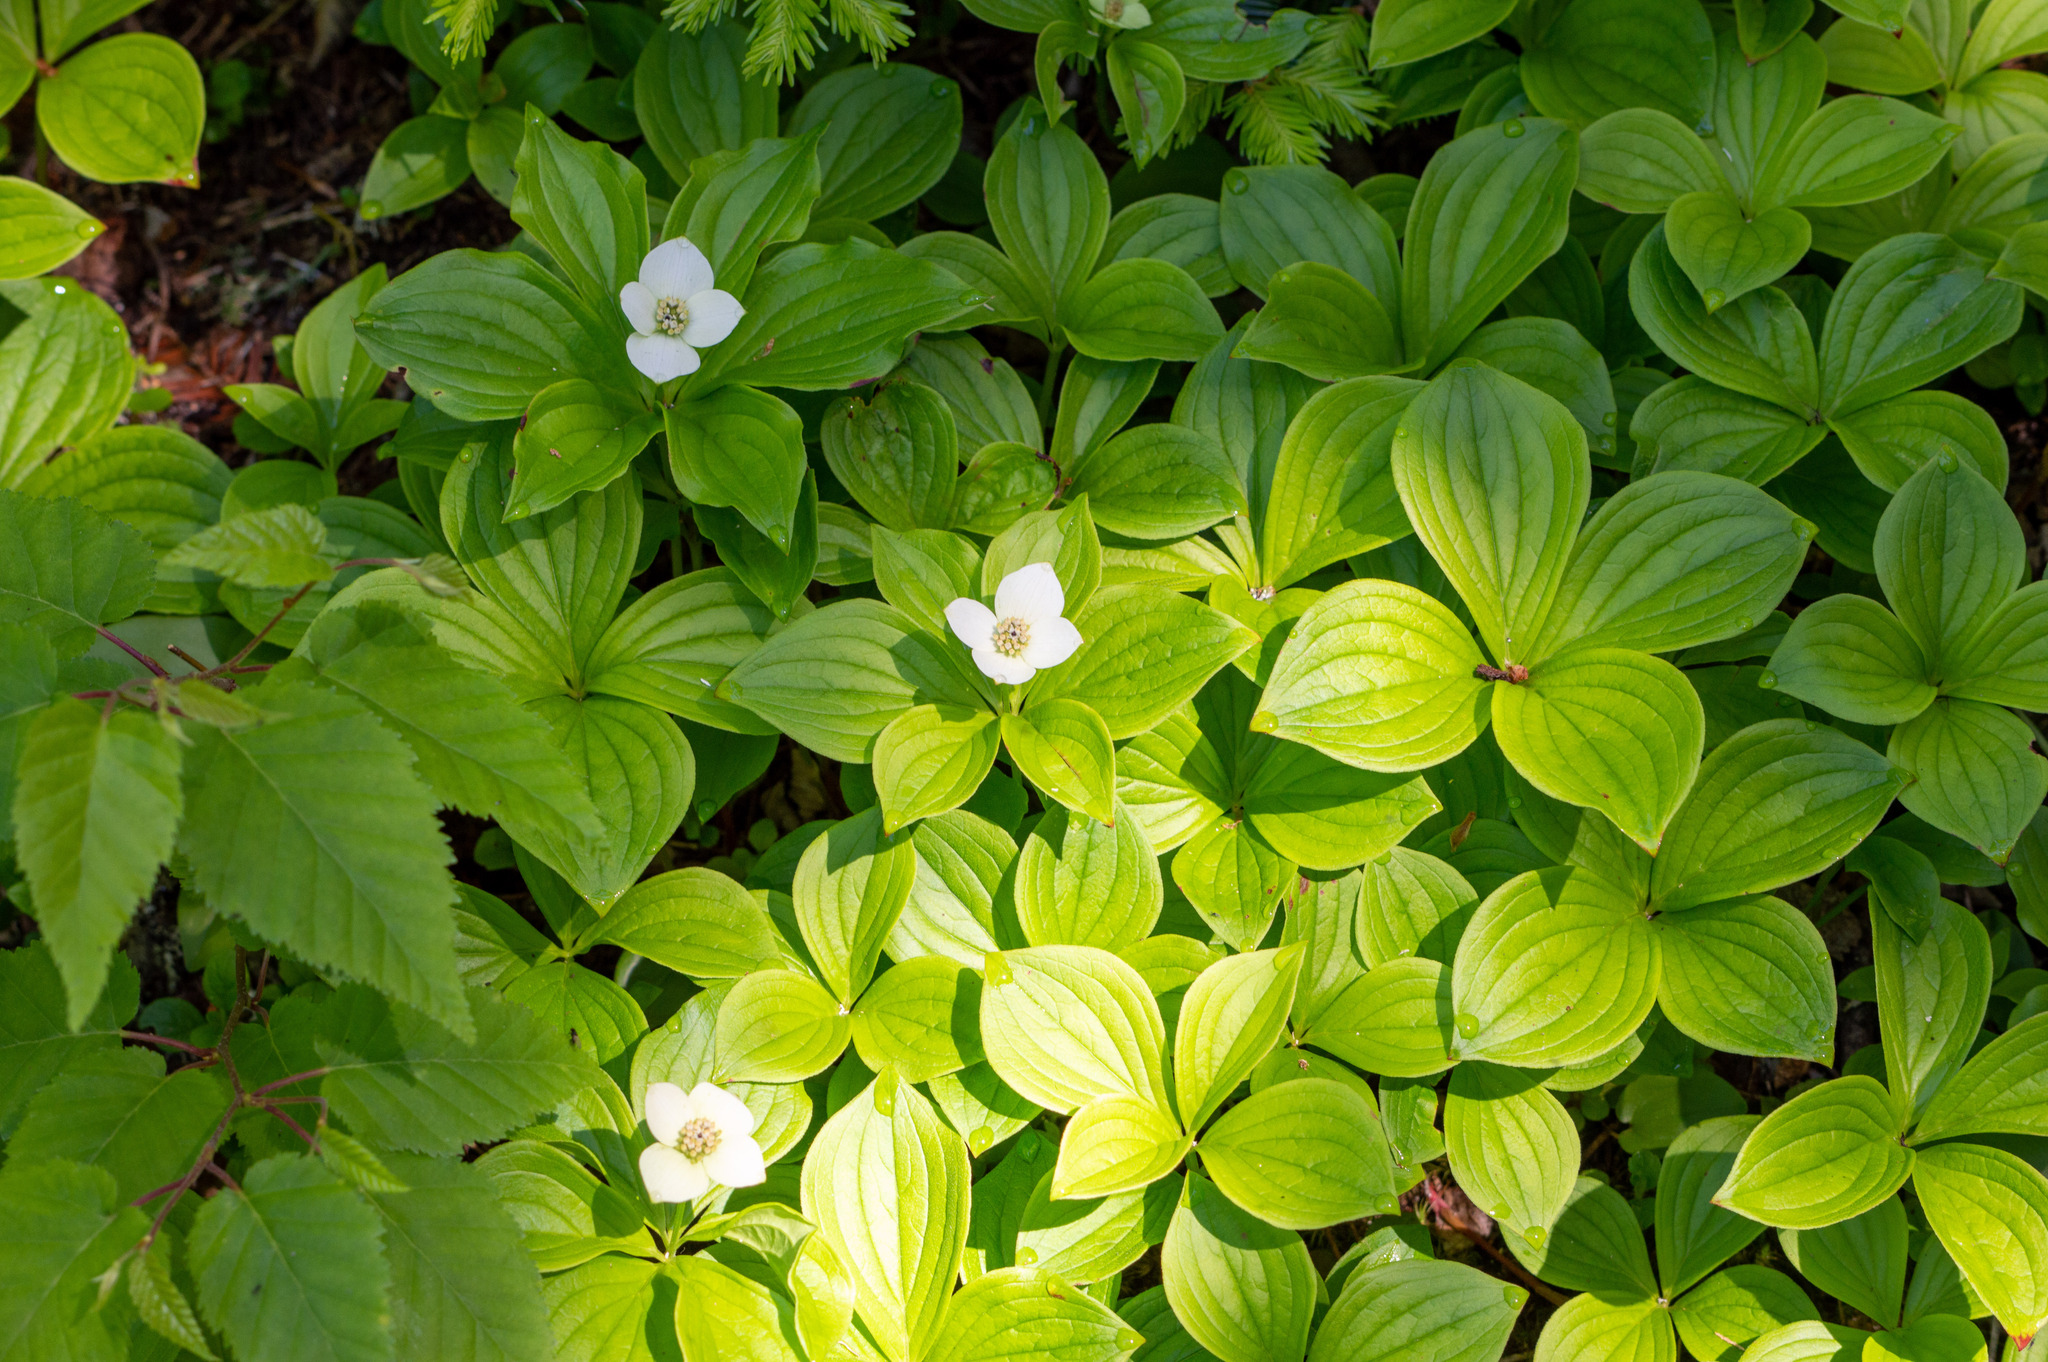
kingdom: Plantae
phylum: Tracheophyta
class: Magnoliopsida
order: Cornales
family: Cornaceae
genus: Cornus
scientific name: Cornus canadensis
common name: Creeping dogwood
